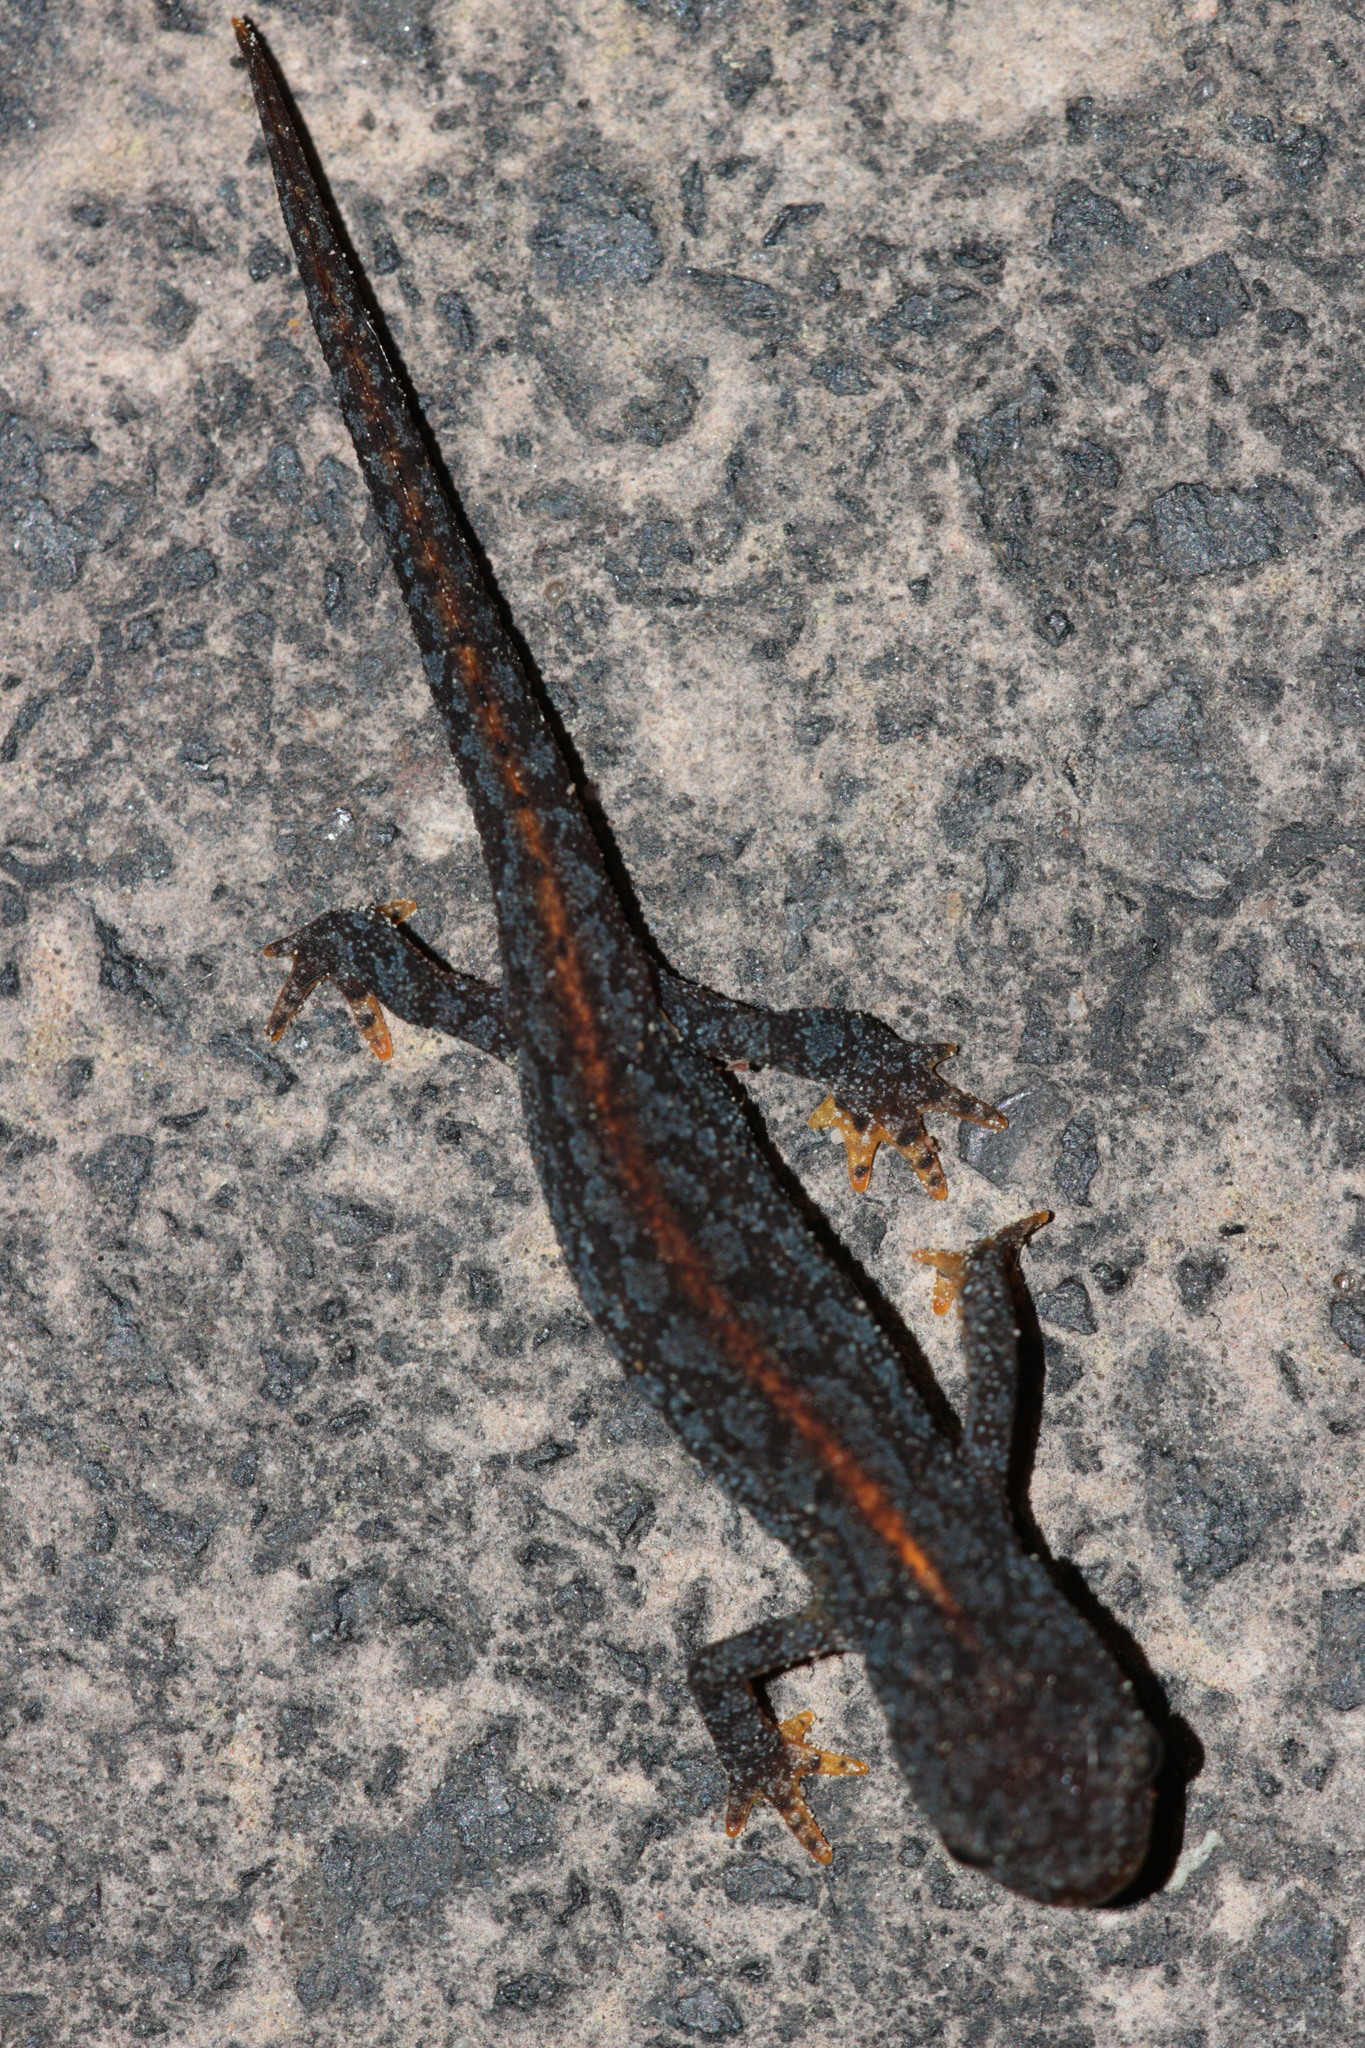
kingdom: Animalia
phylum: Chordata
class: Amphibia
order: Caudata
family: Salamandridae
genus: Ichthyosaura
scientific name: Ichthyosaura alpestris
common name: Alpine newt
